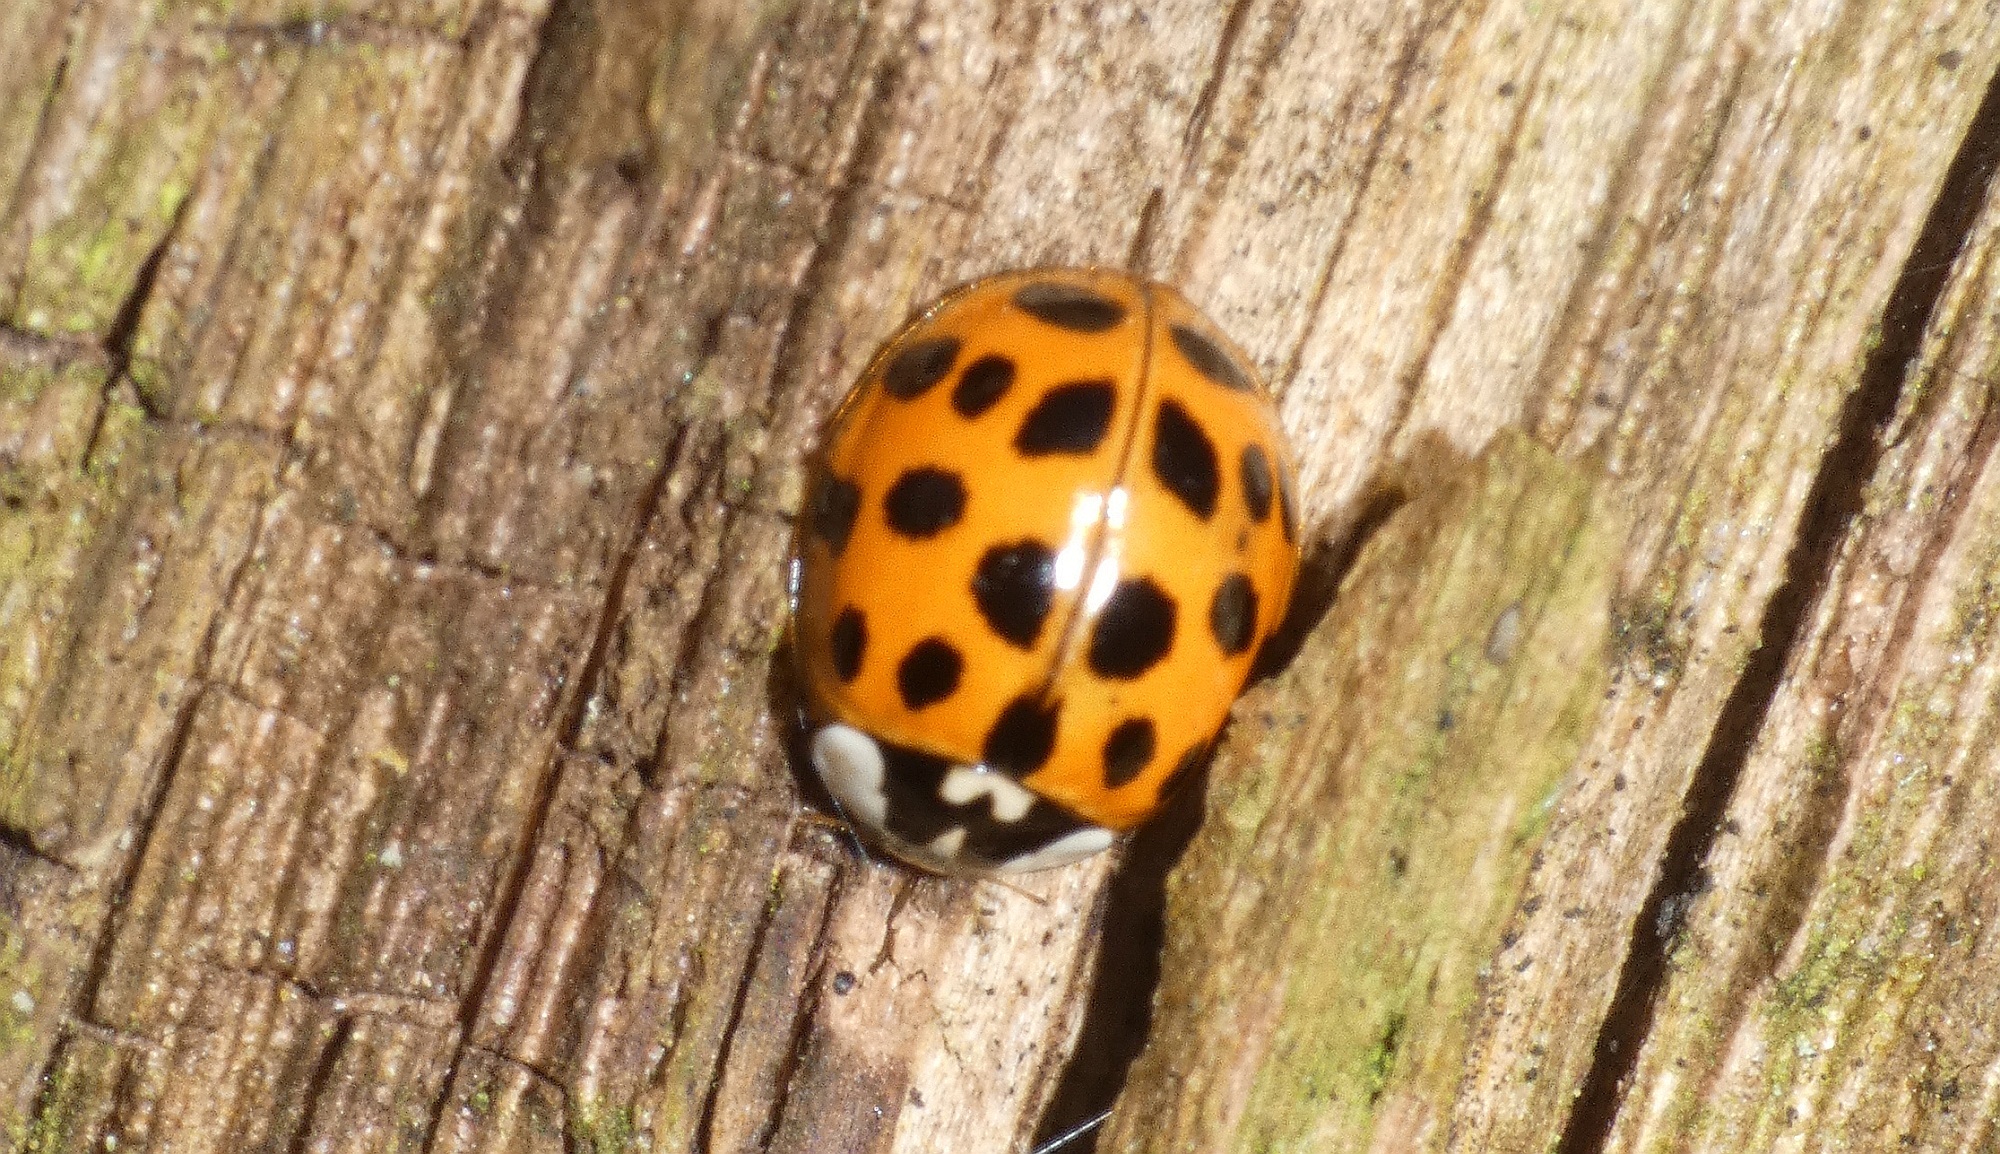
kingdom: Animalia
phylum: Arthropoda
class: Insecta
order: Coleoptera
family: Coccinellidae
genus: Harmonia
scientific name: Harmonia axyridis
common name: Harlequin ladybird
